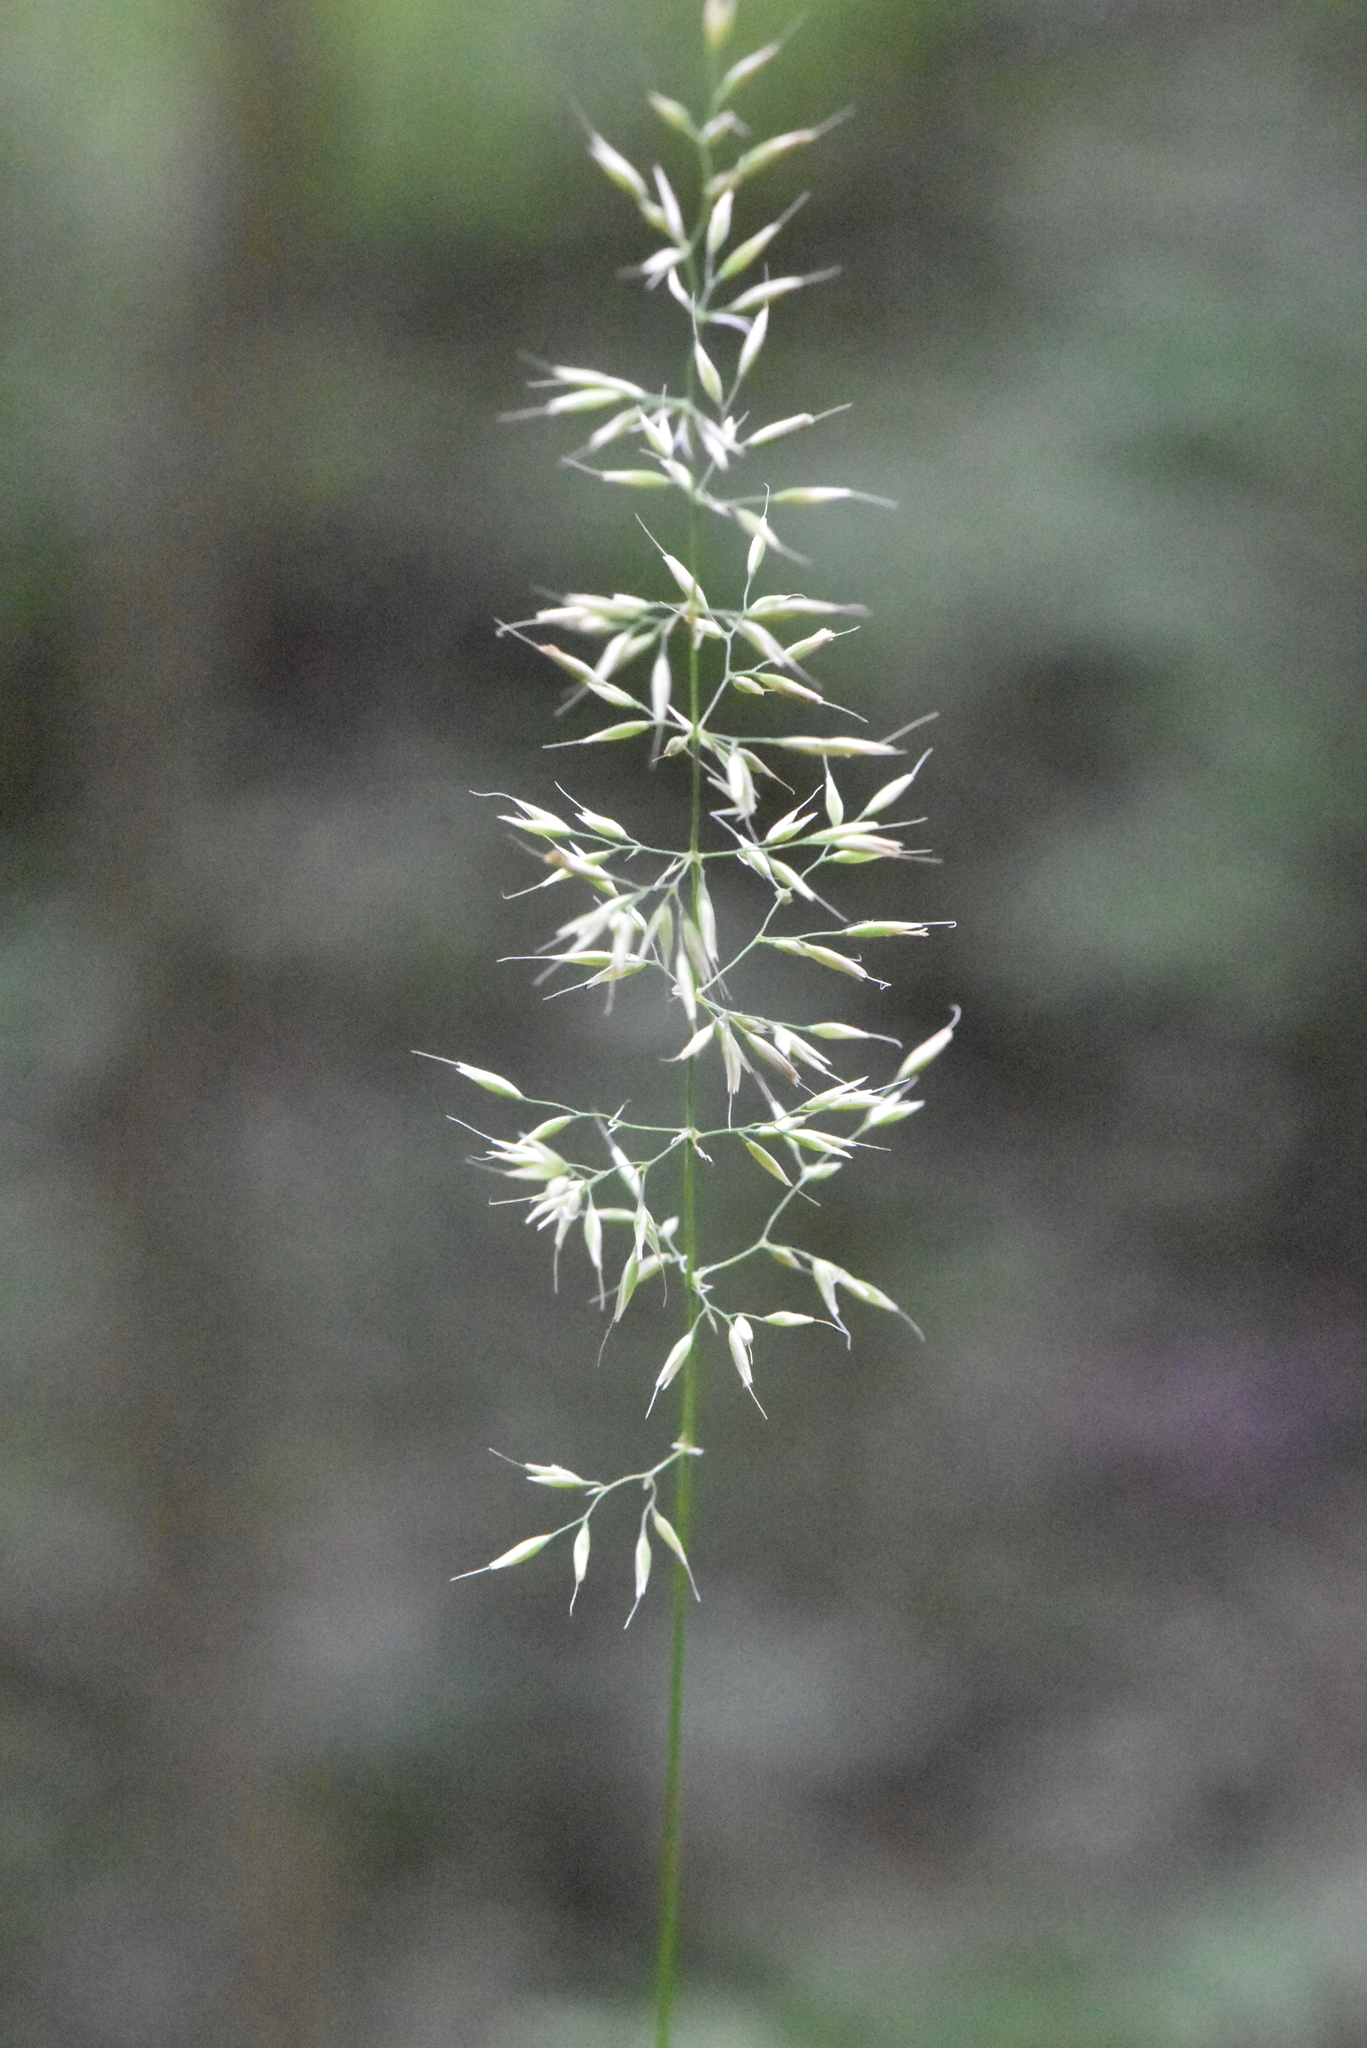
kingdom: Plantae
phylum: Tracheophyta
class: Liliopsida
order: Poales
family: Poaceae
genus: Calamagrostis
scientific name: Calamagrostis arundinacea
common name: Metskastik
